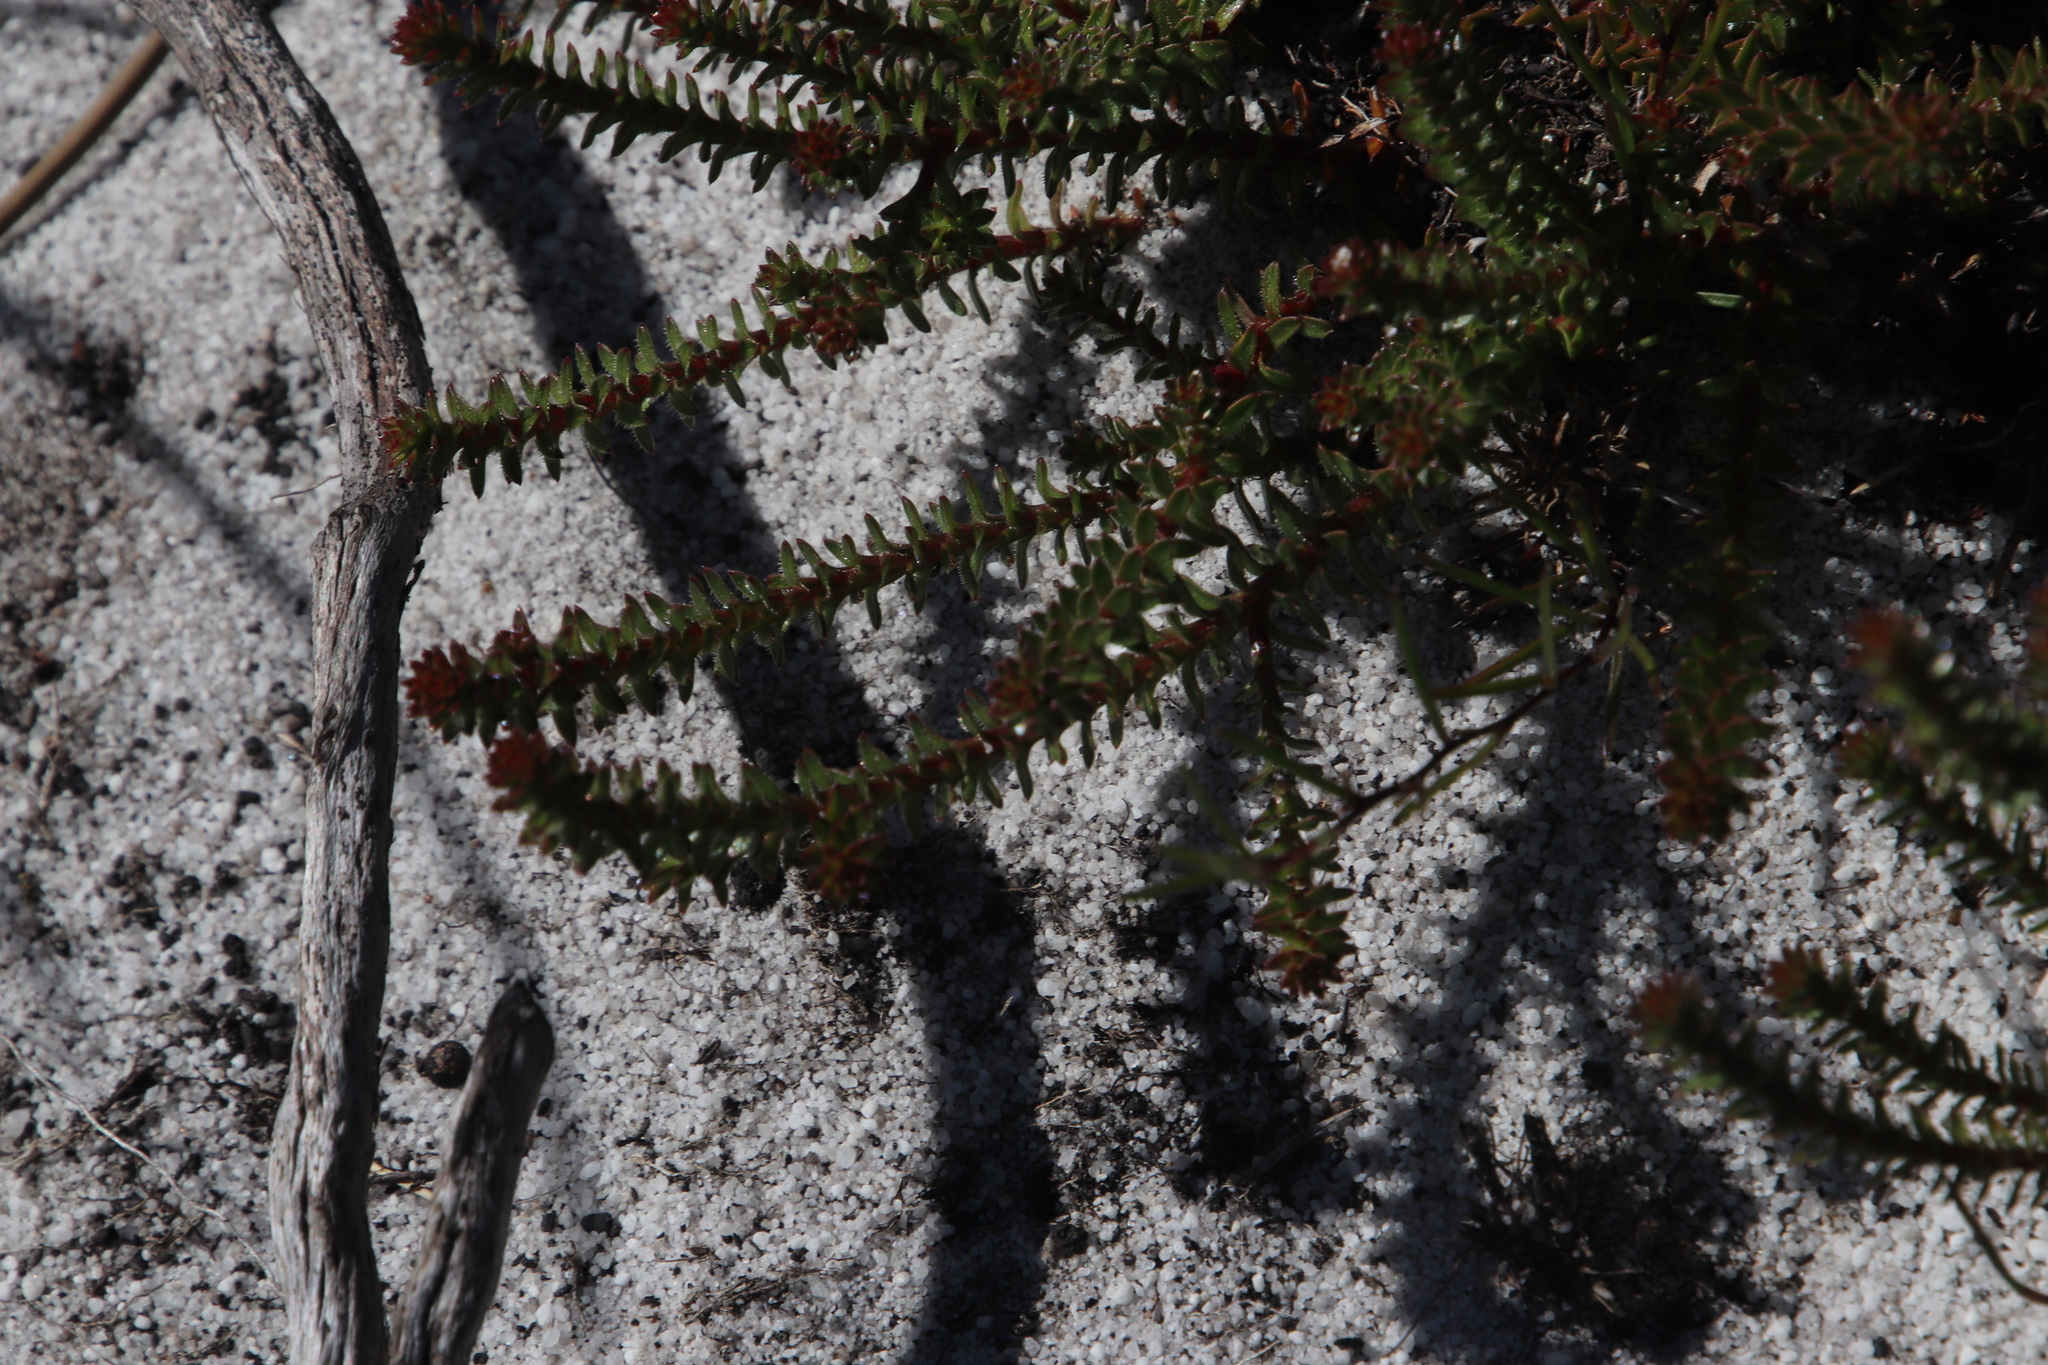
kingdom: Plantae
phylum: Tracheophyta
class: Magnoliopsida
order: Asterales
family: Campanulaceae
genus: Roella
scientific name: Roella recurvata
